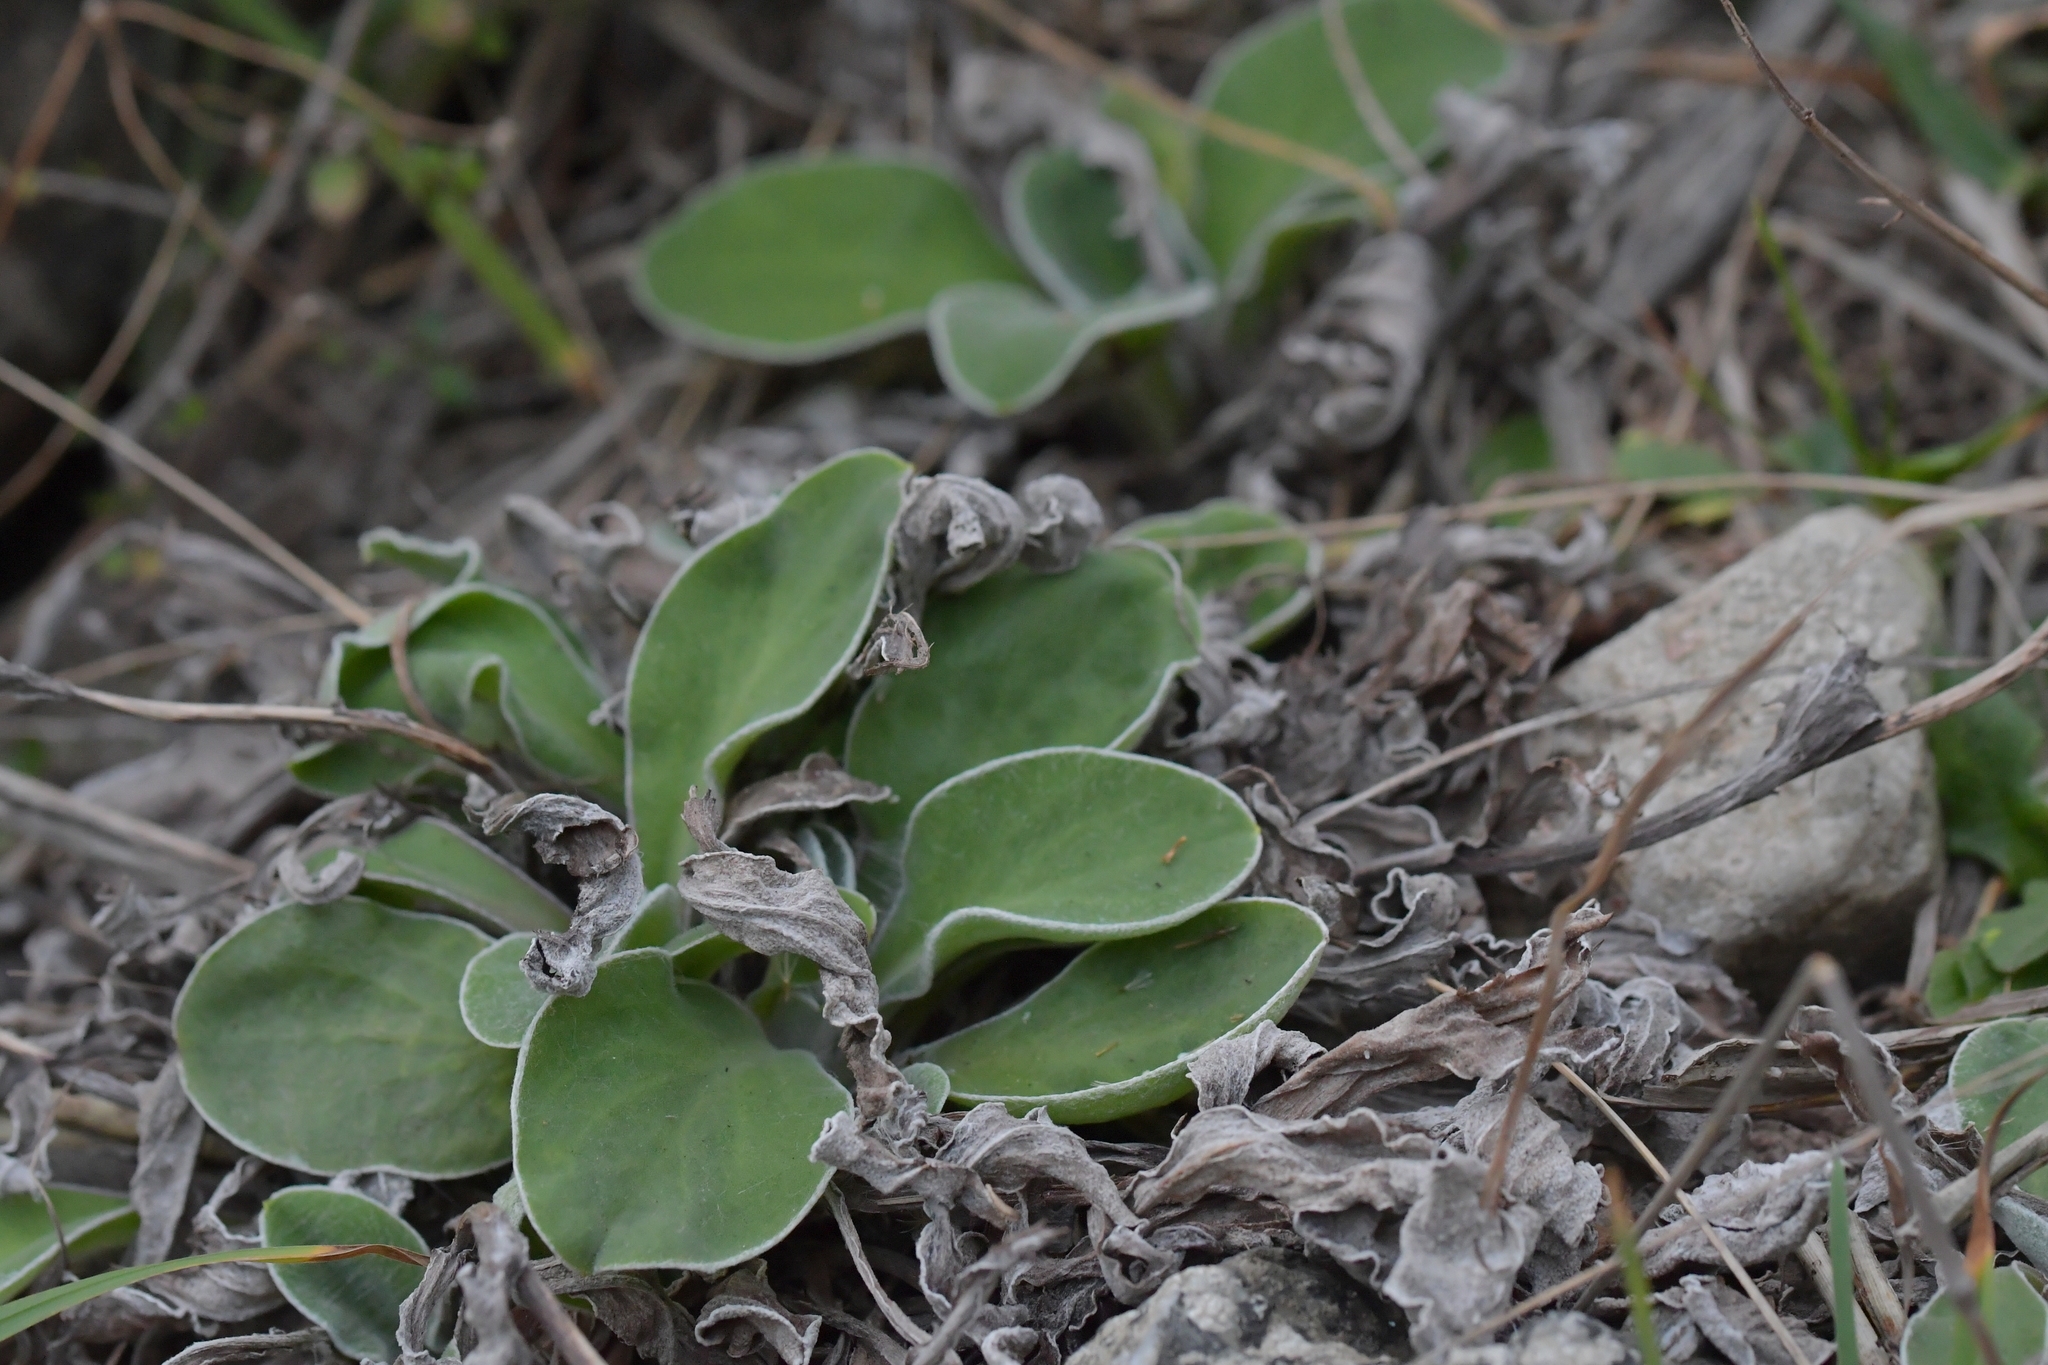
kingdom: Plantae
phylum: Tracheophyta
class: Magnoliopsida
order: Asterales
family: Asteraceae
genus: Craspedia
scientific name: Craspedia uniflora
